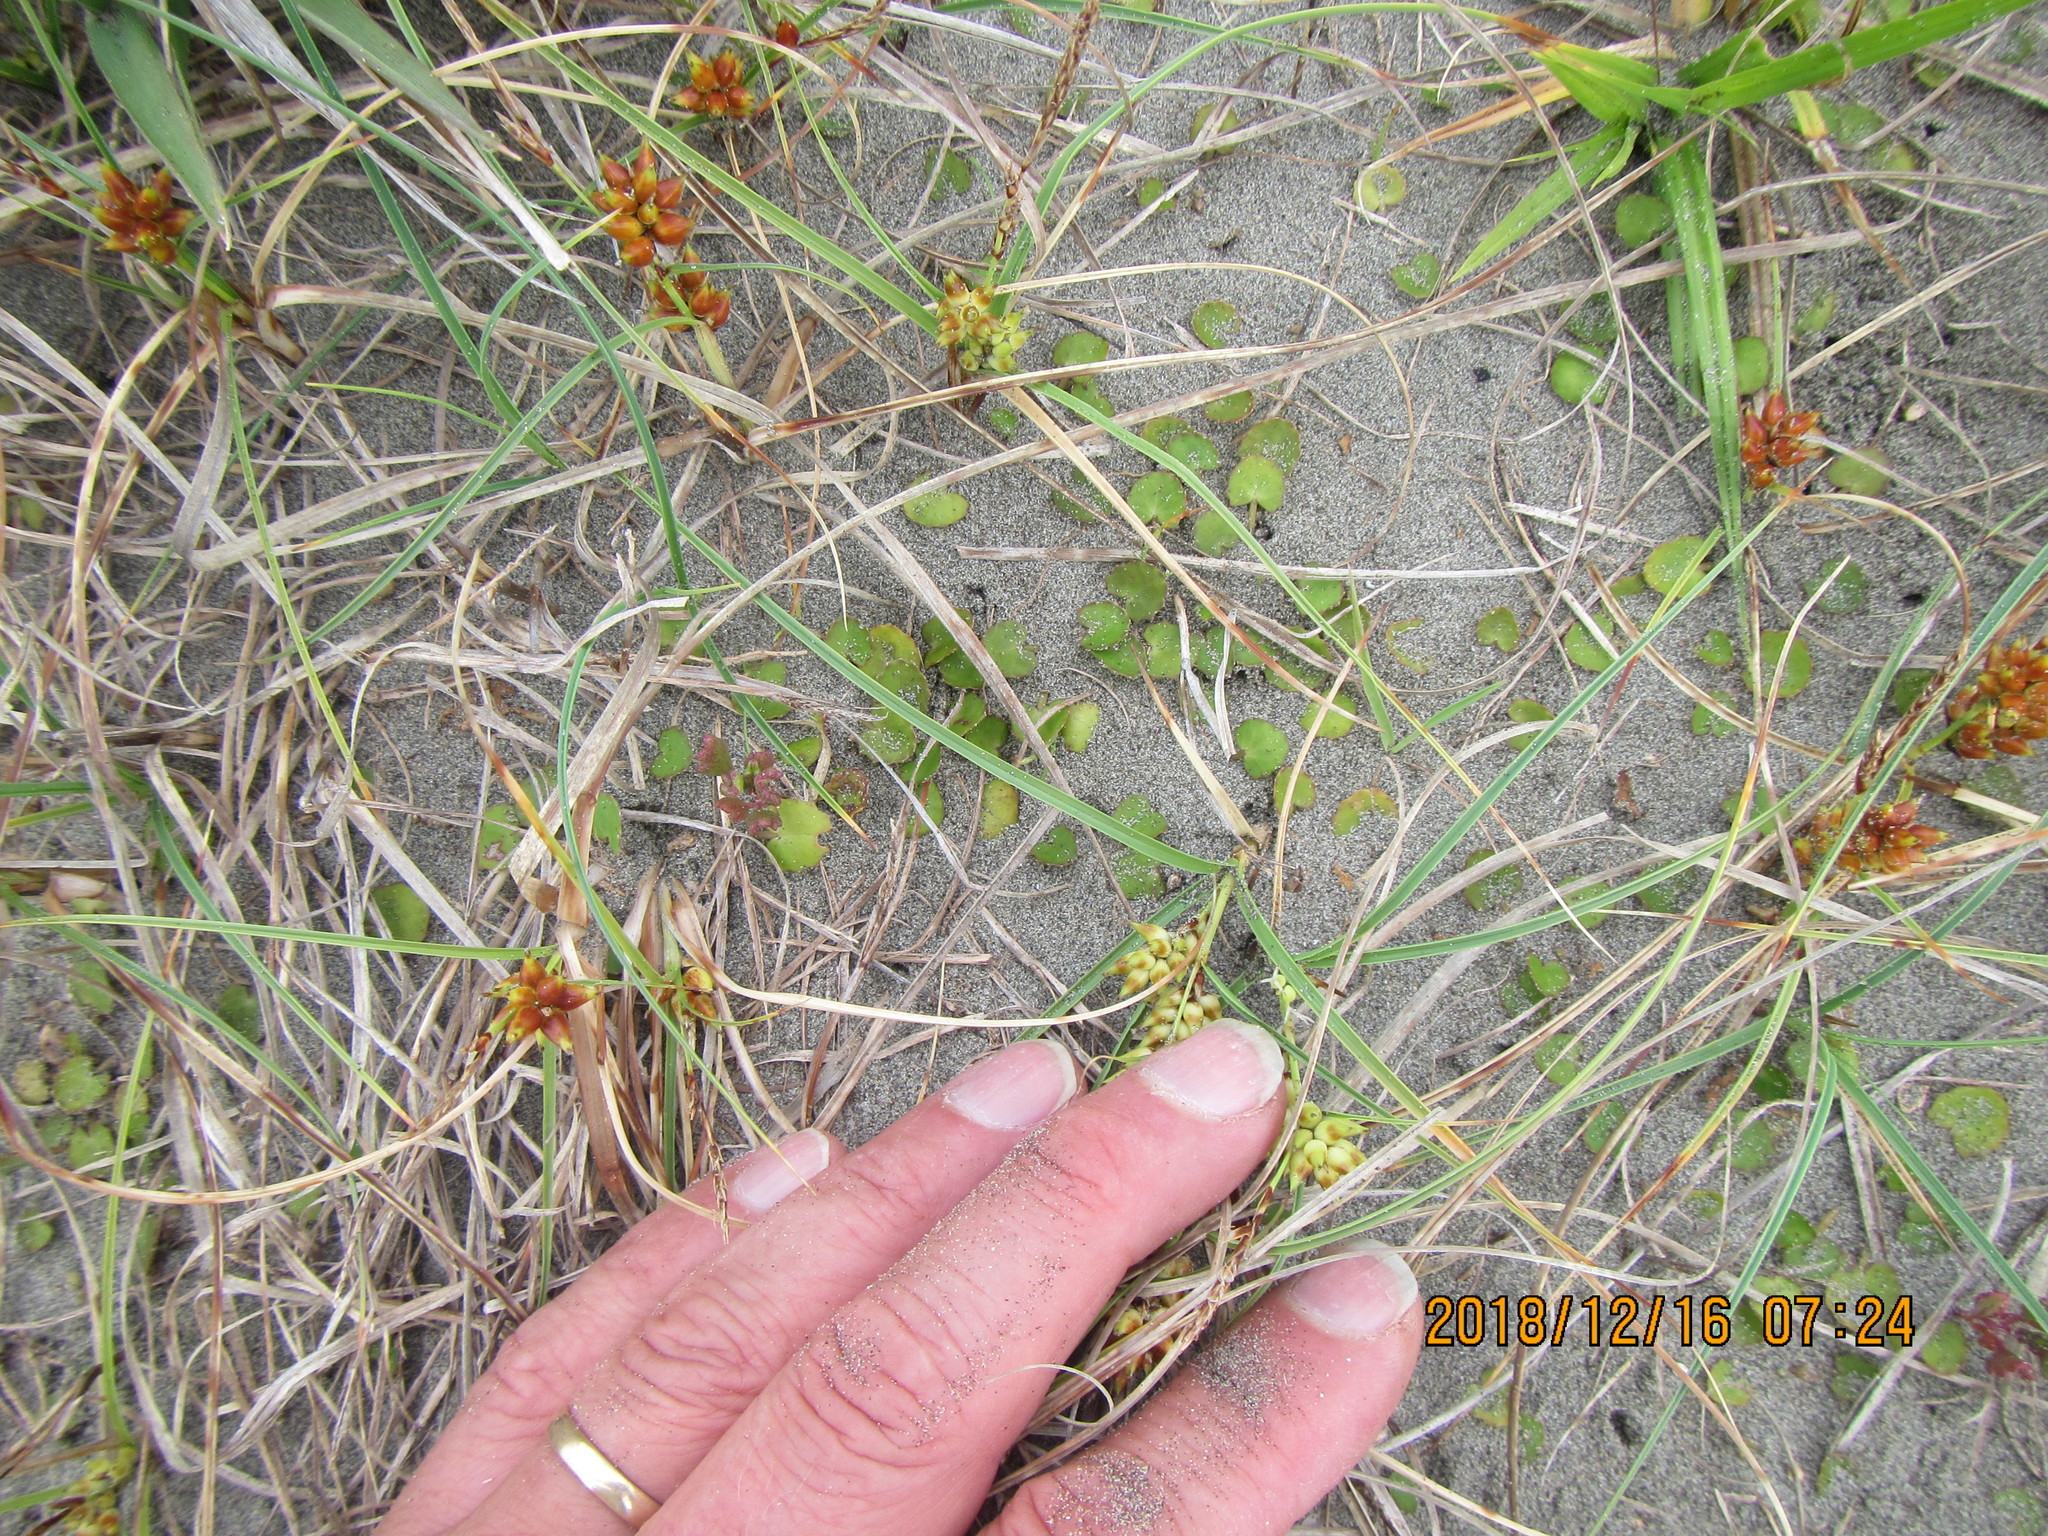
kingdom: Plantae
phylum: Tracheophyta
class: Magnoliopsida
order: Apiales
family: Apiaceae
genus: Centella
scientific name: Centella uniflora
